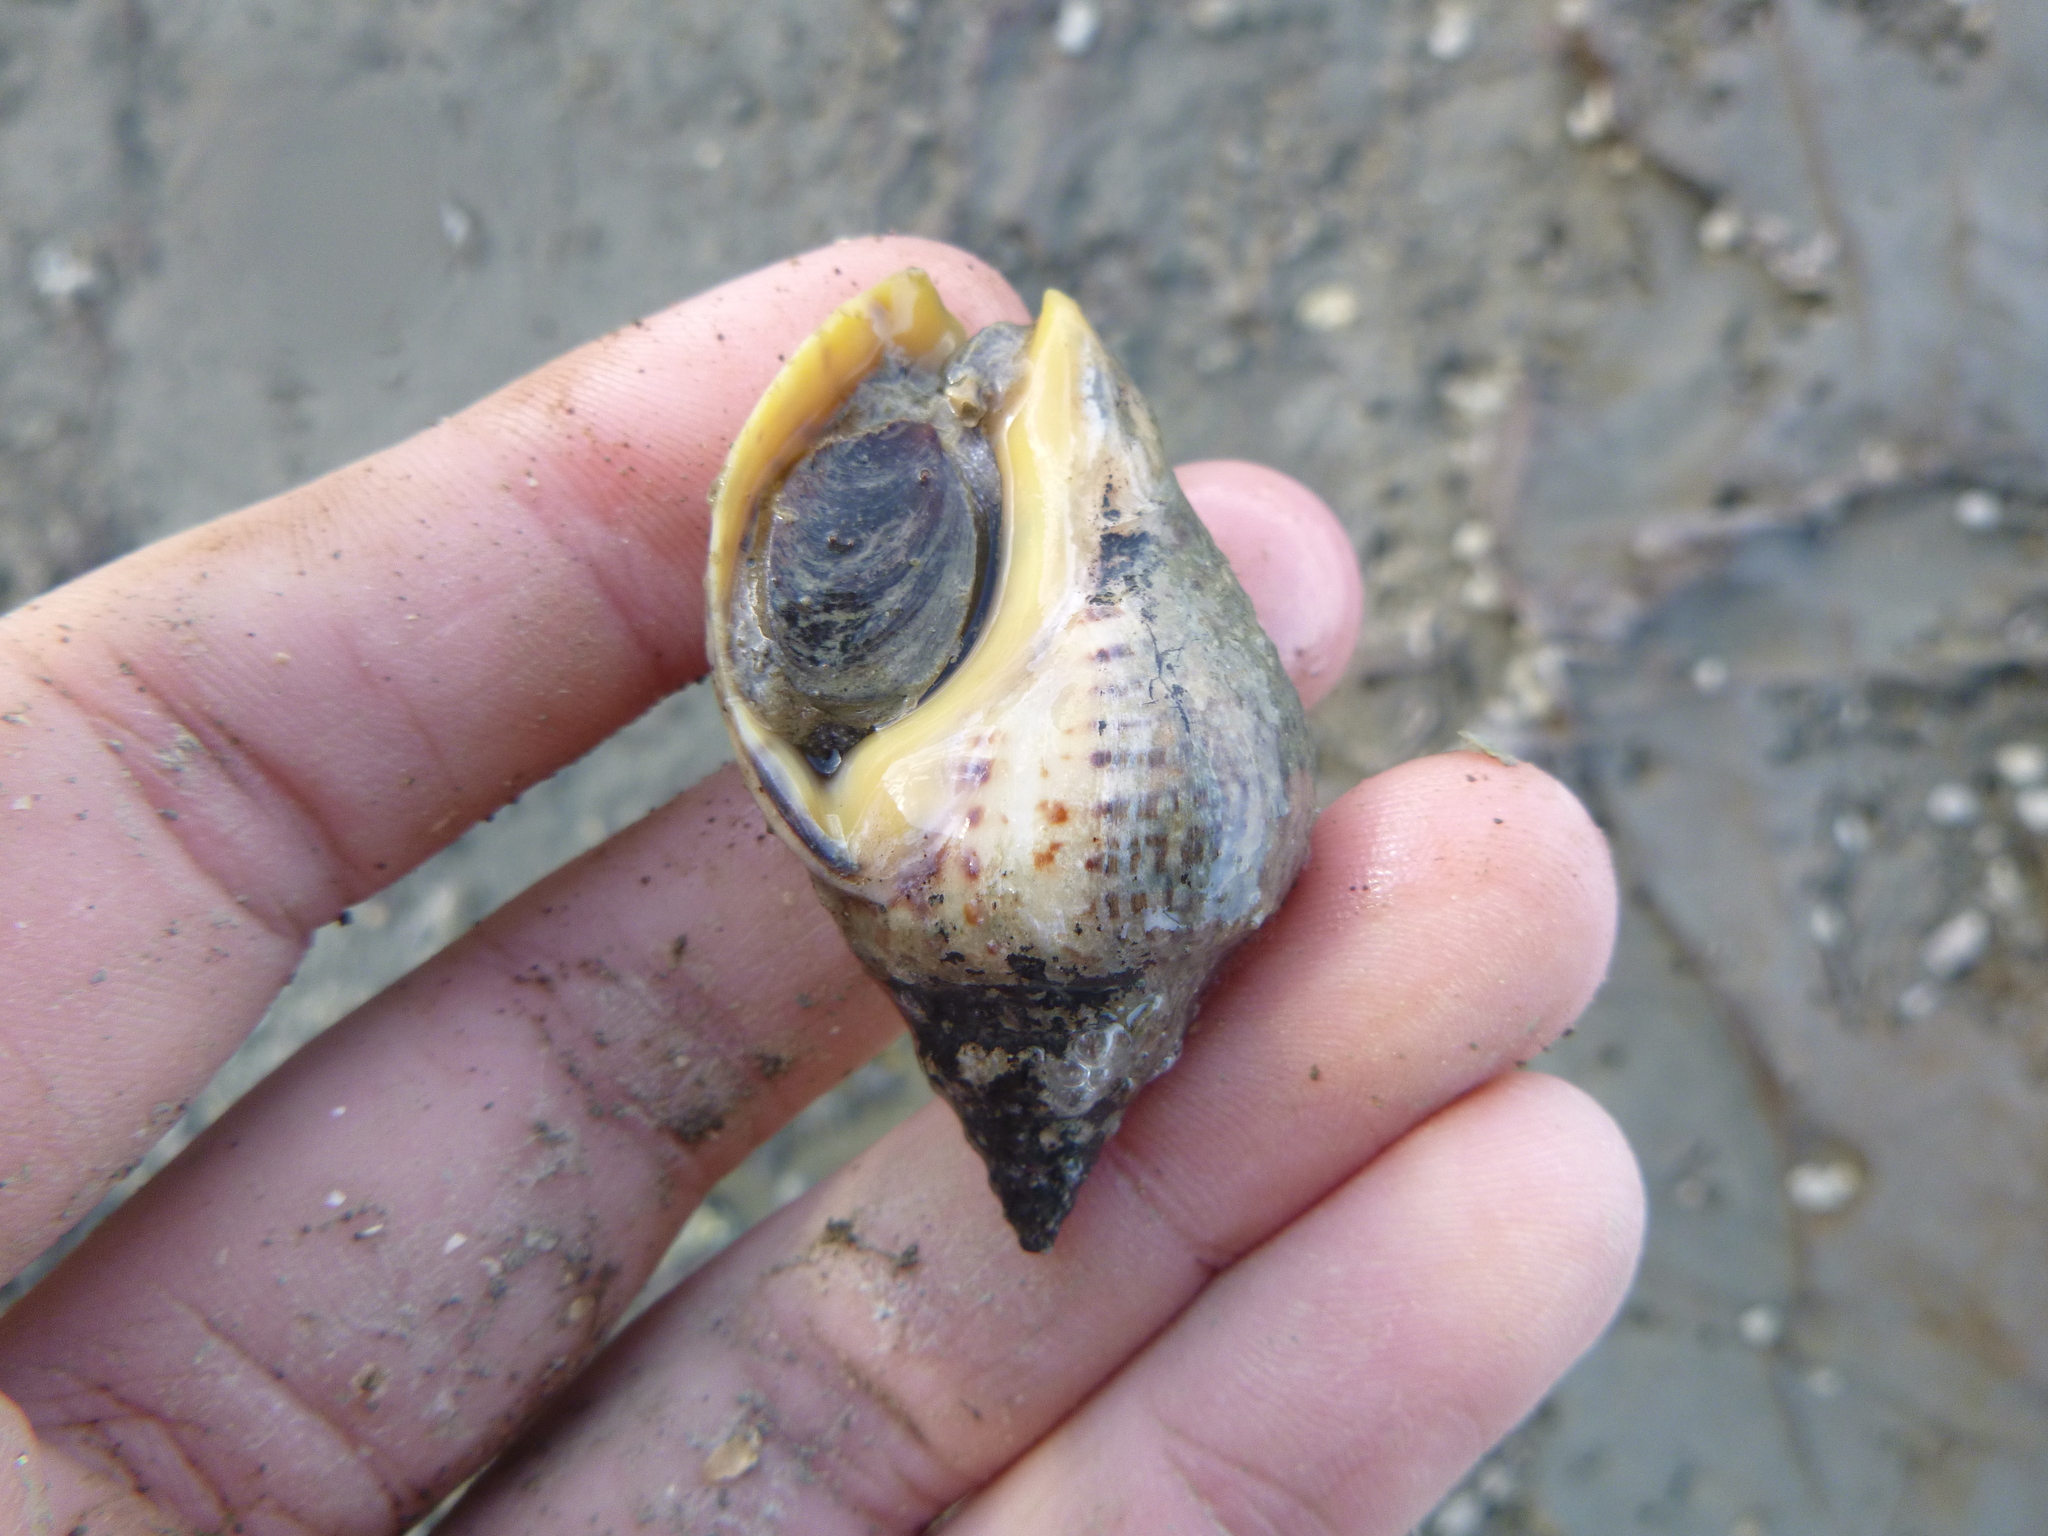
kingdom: Animalia
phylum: Mollusca
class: Gastropoda
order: Neogastropoda
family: Cominellidae
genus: Cominella
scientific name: Cominella adspersa
